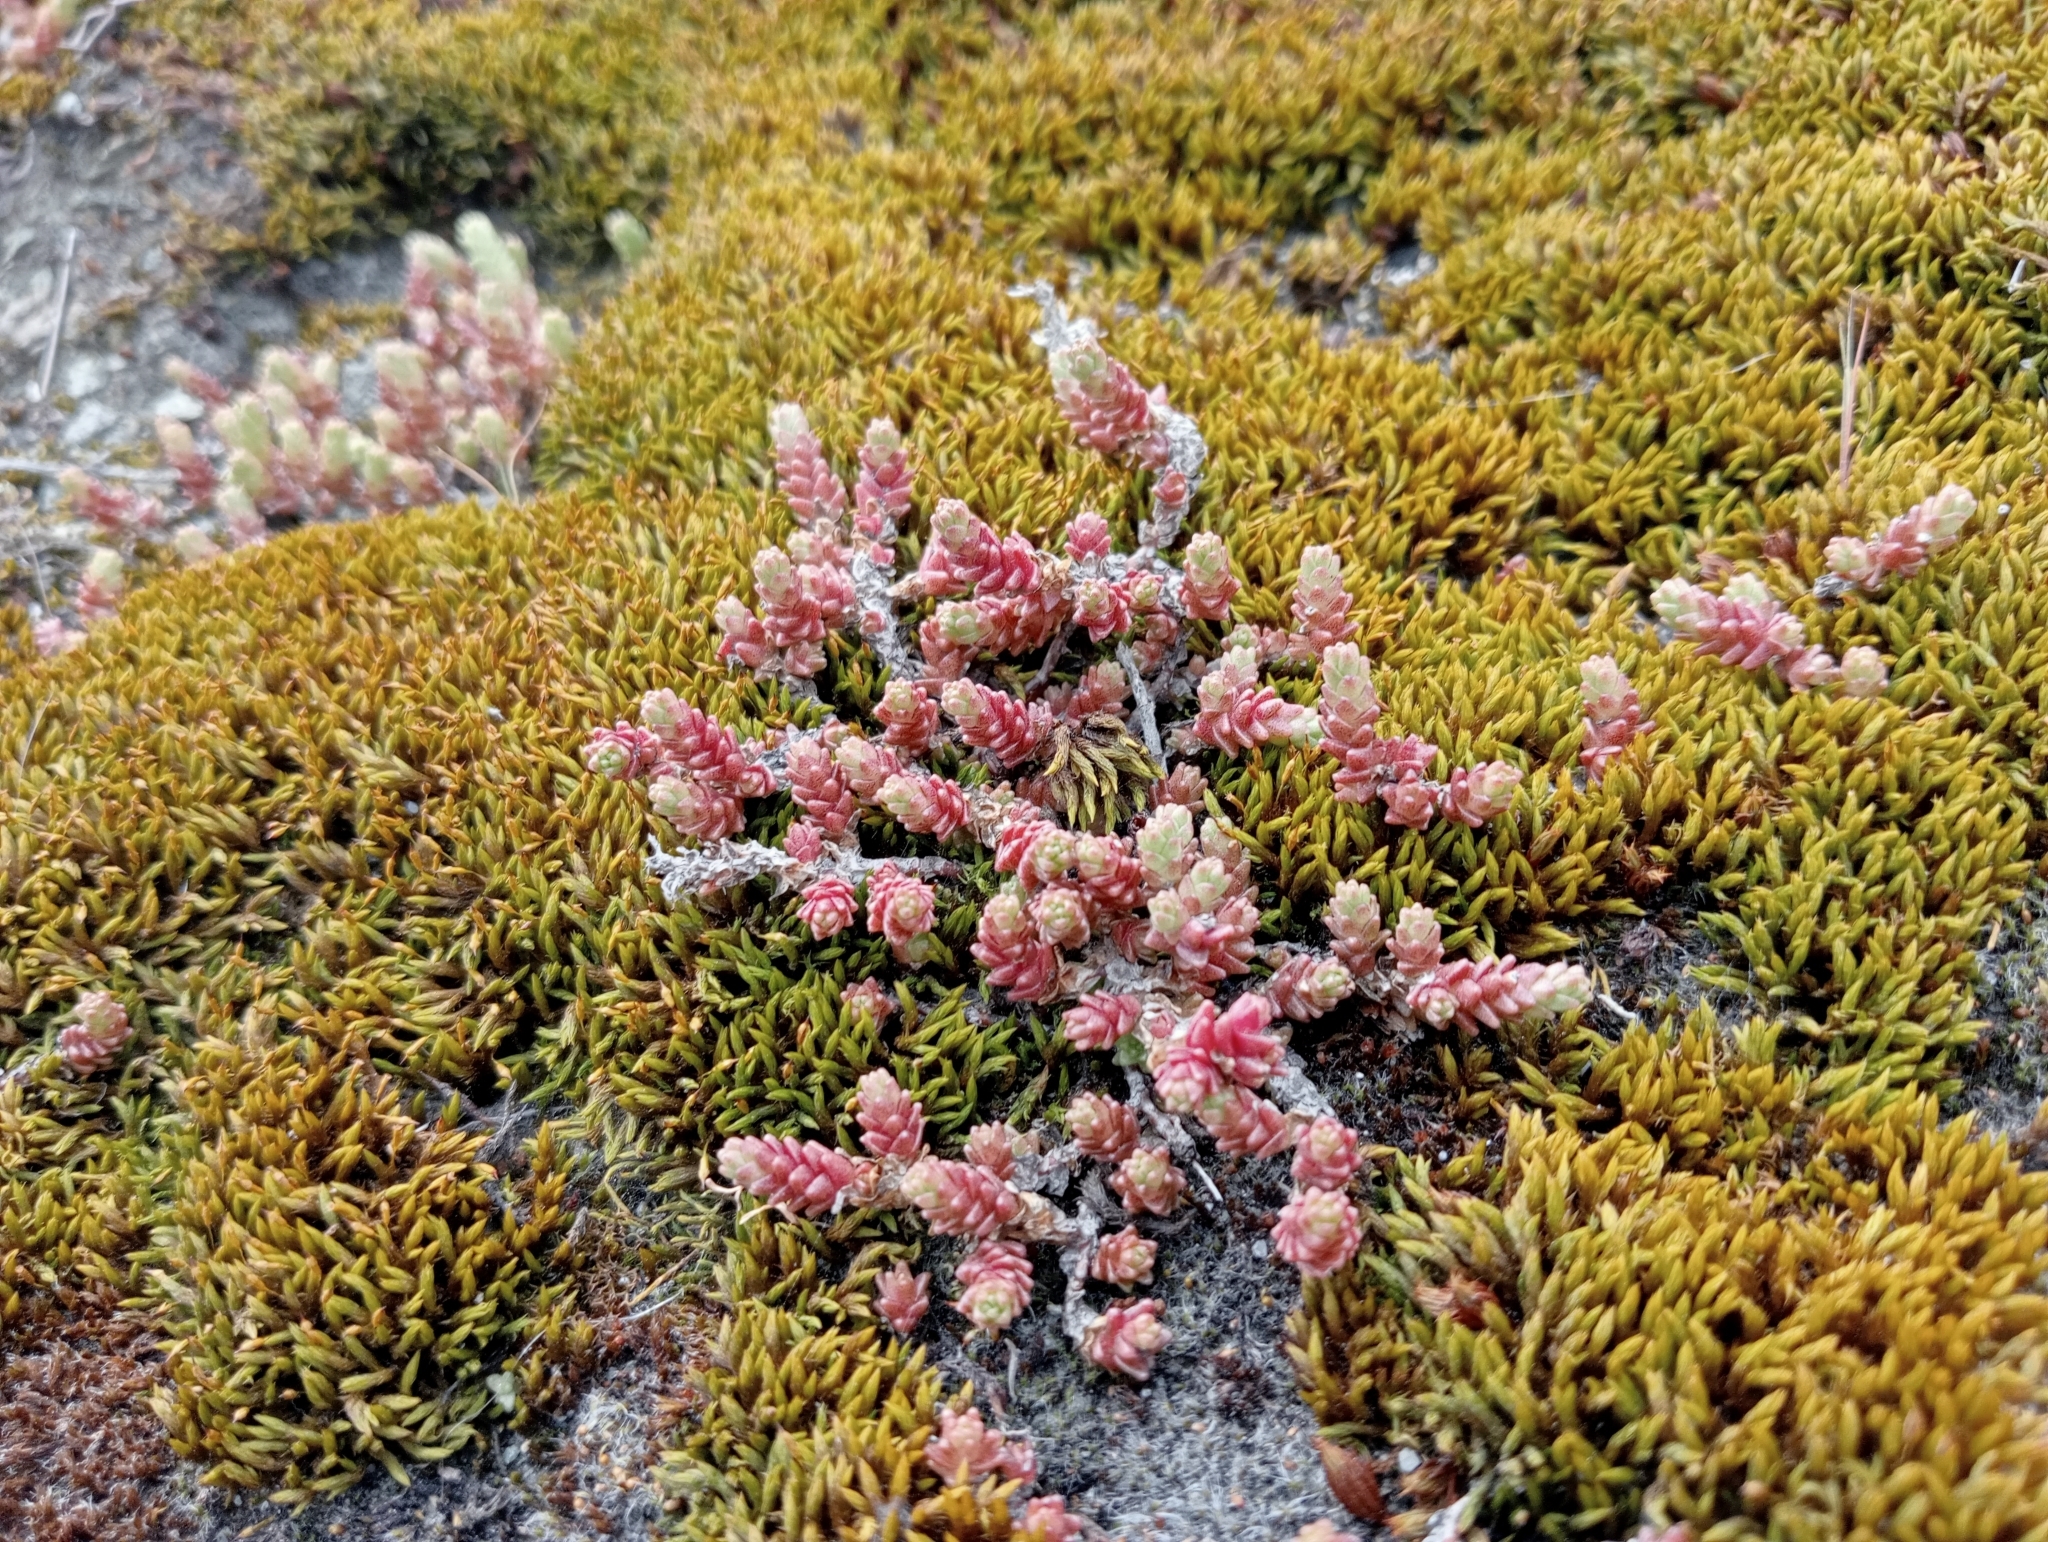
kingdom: Plantae
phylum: Tracheophyta
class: Magnoliopsida
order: Saxifragales
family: Crassulaceae
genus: Sedum
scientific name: Sedum acre
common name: Biting stonecrop
